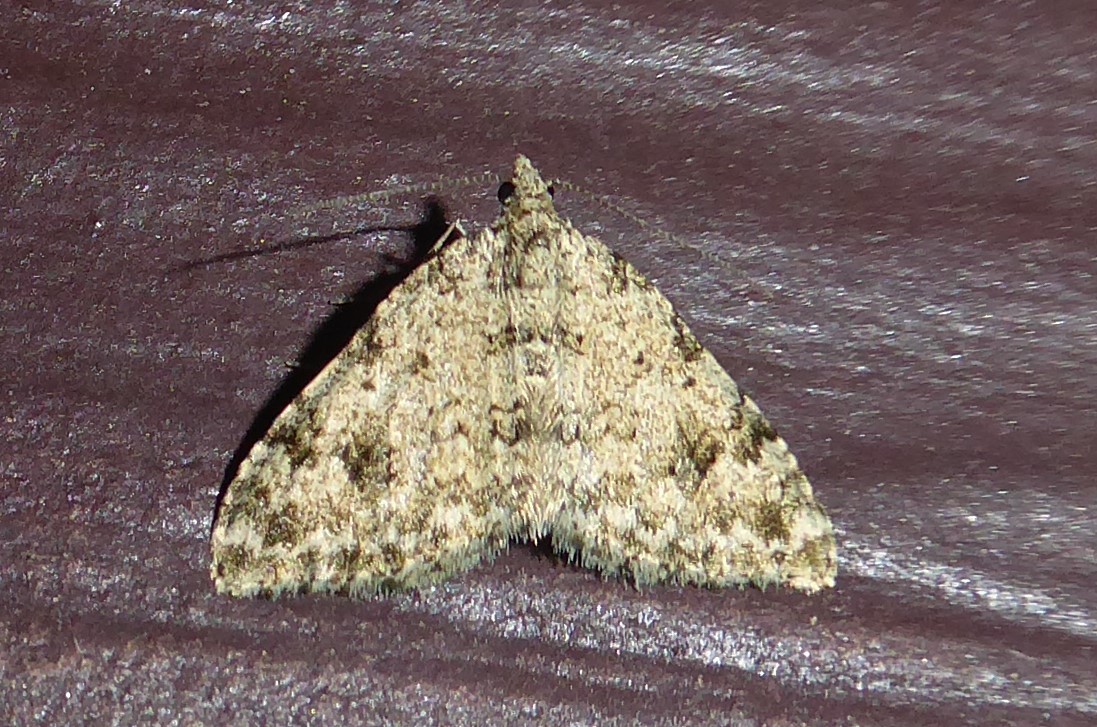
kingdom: Animalia
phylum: Arthropoda
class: Insecta
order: Lepidoptera
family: Geometridae
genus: Helastia
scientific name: Helastia cinerearia
